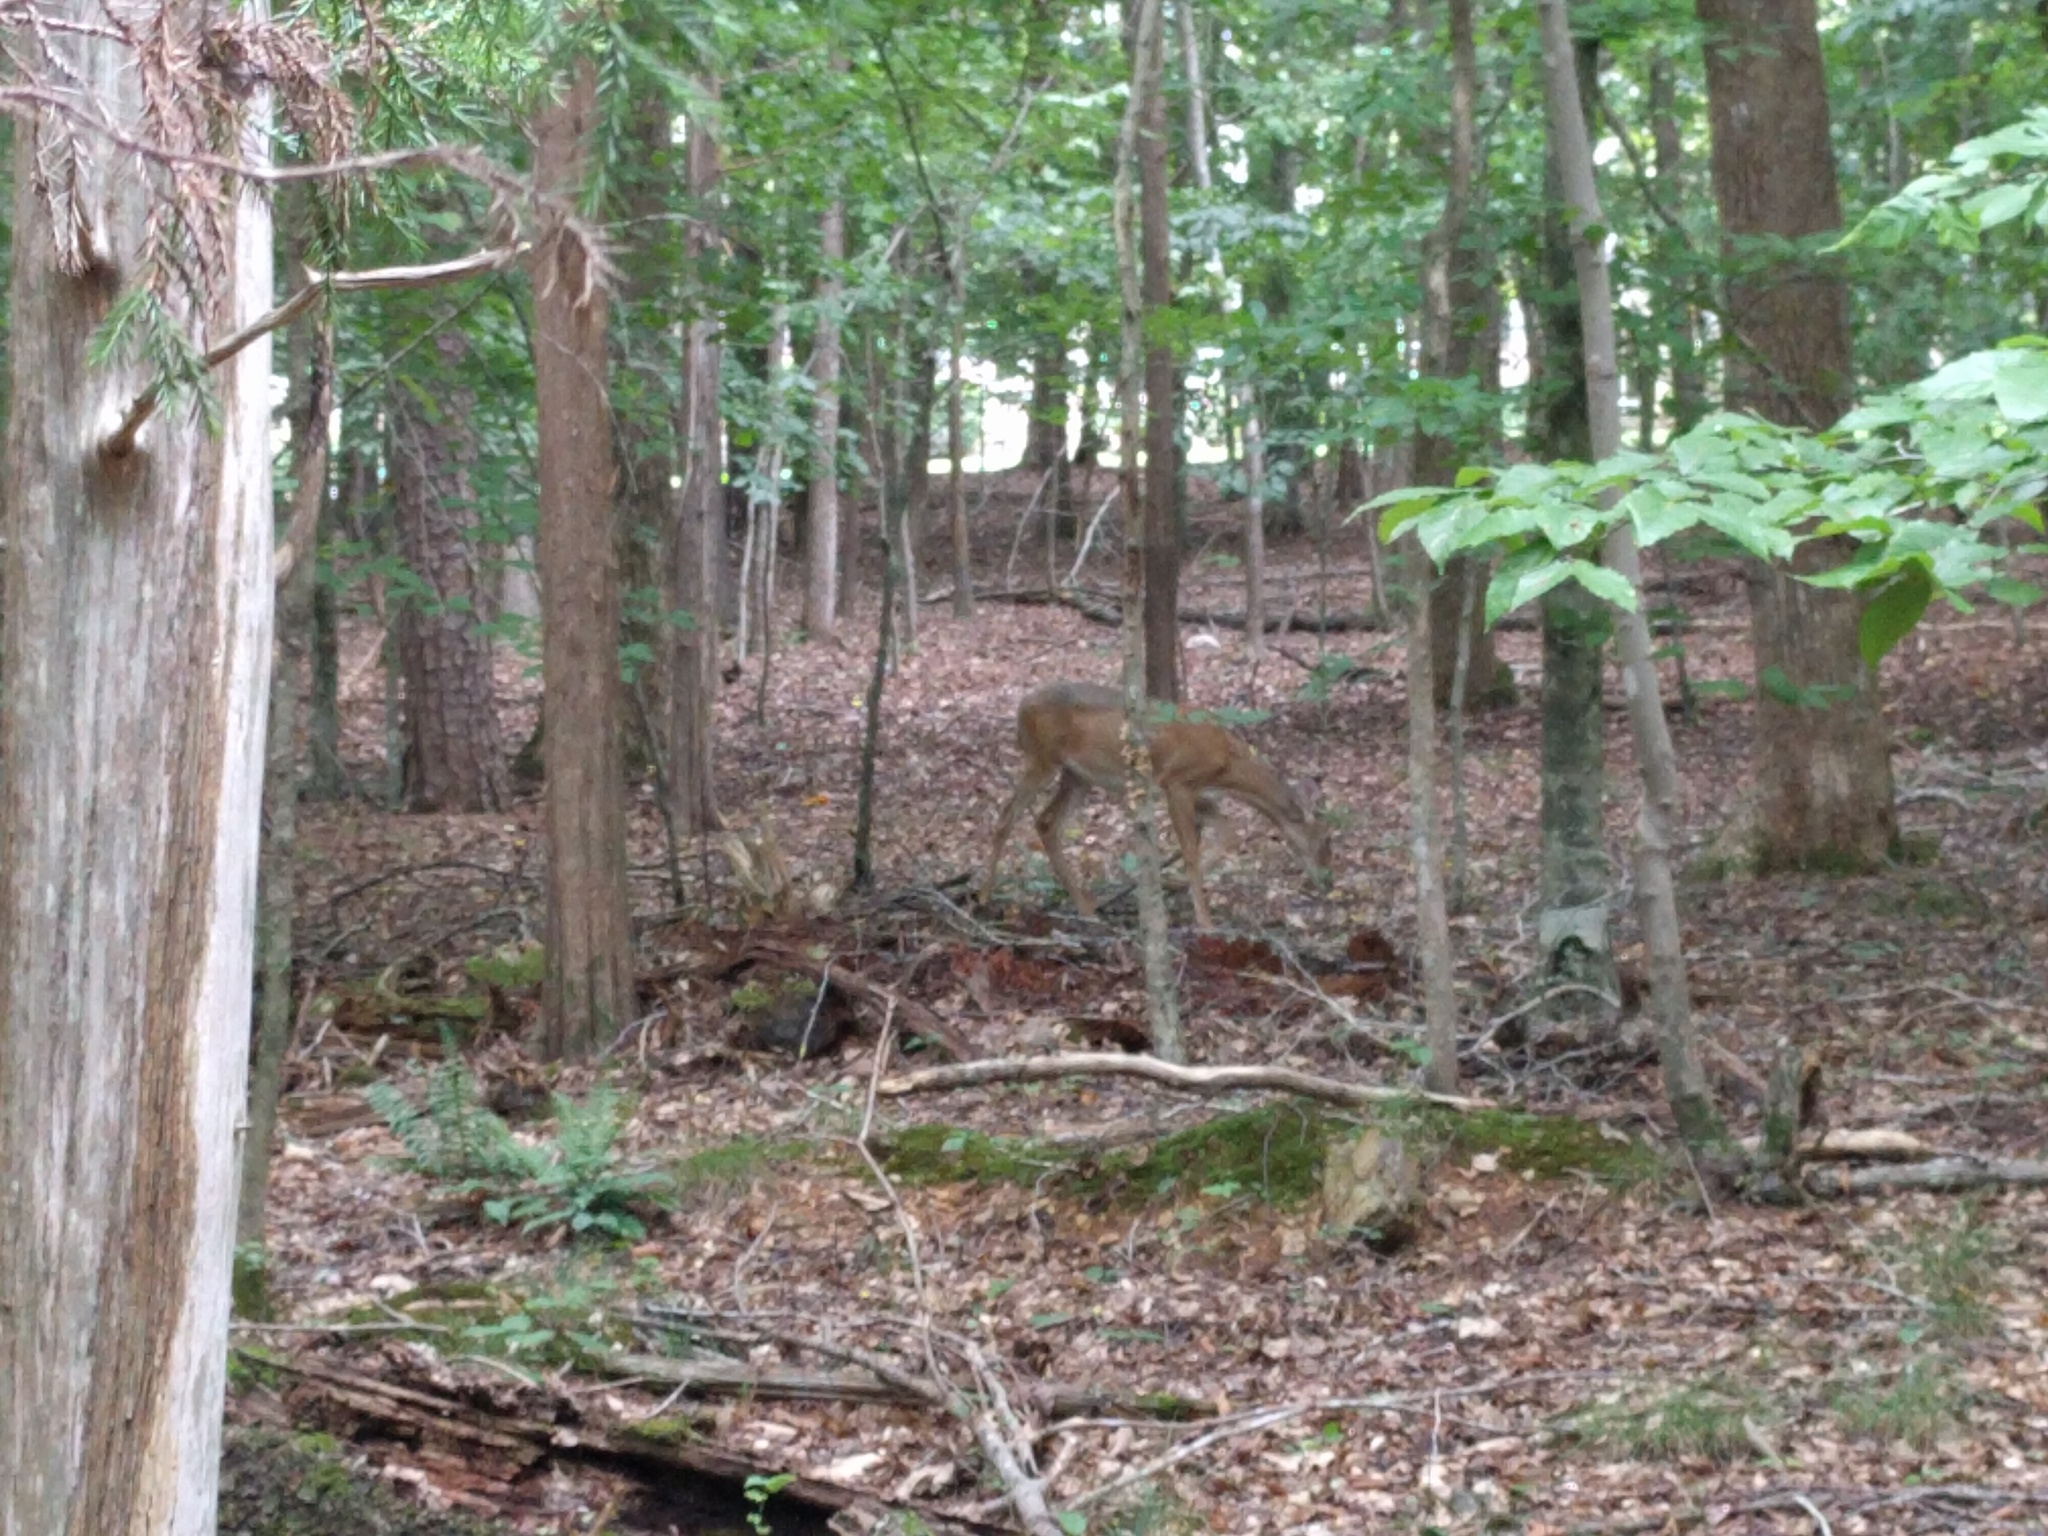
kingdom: Animalia
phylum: Chordata
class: Mammalia
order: Artiodactyla
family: Cervidae
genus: Odocoileus
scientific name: Odocoileus virginianus
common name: White-tailed deer
